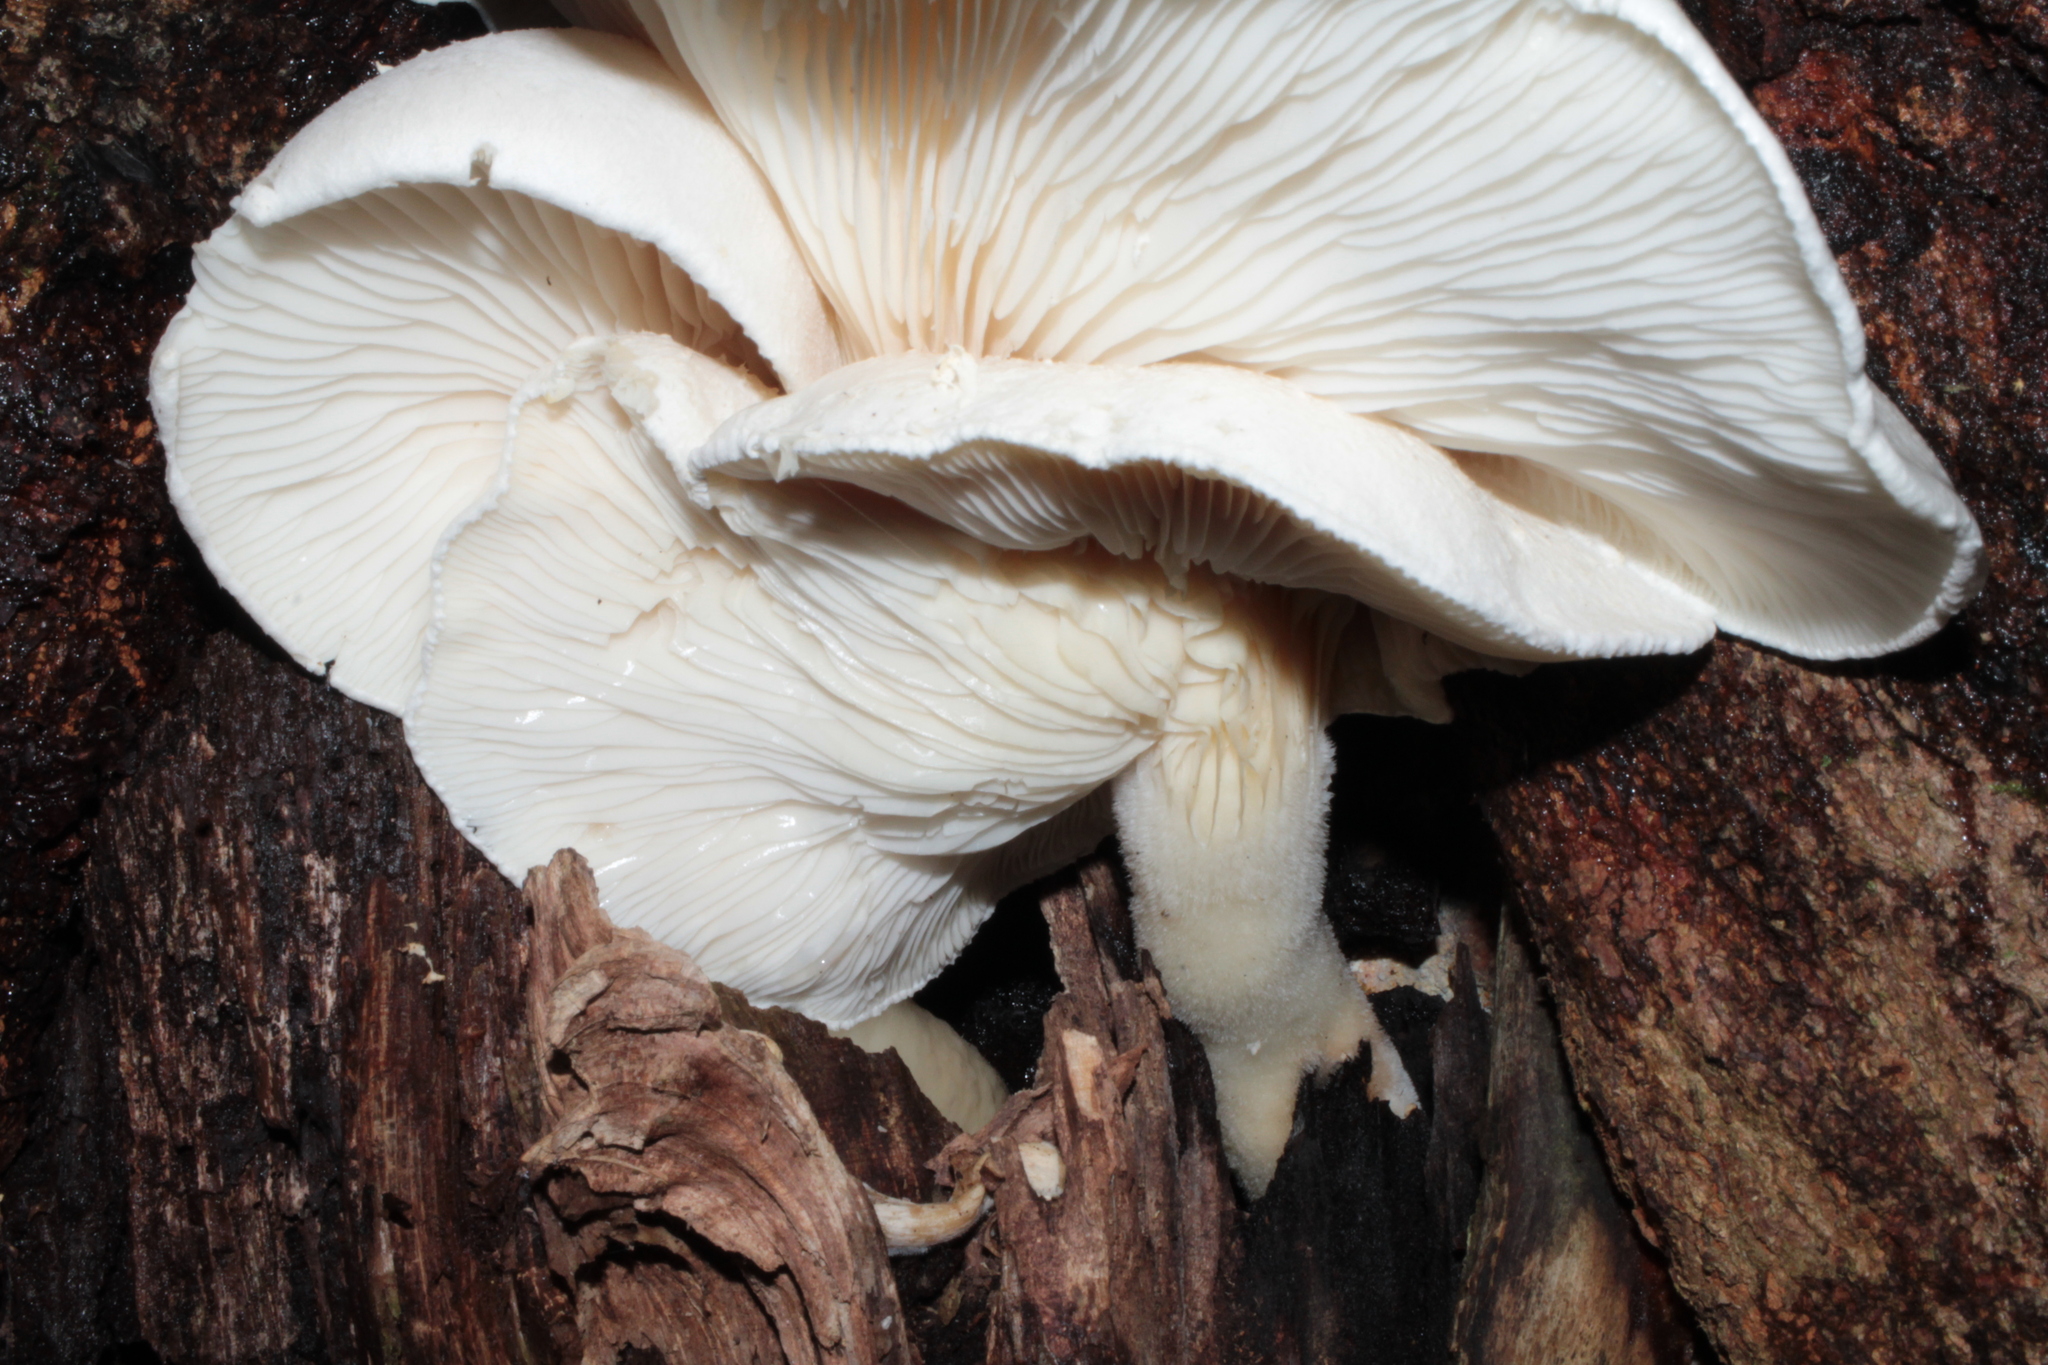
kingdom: Fungi
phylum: Basidiomycota
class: Agaricomycetes
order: Agaricales
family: Pleurotaceae
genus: Pleurotus
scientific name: Pleurotus dryinus
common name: Veiled oyster
